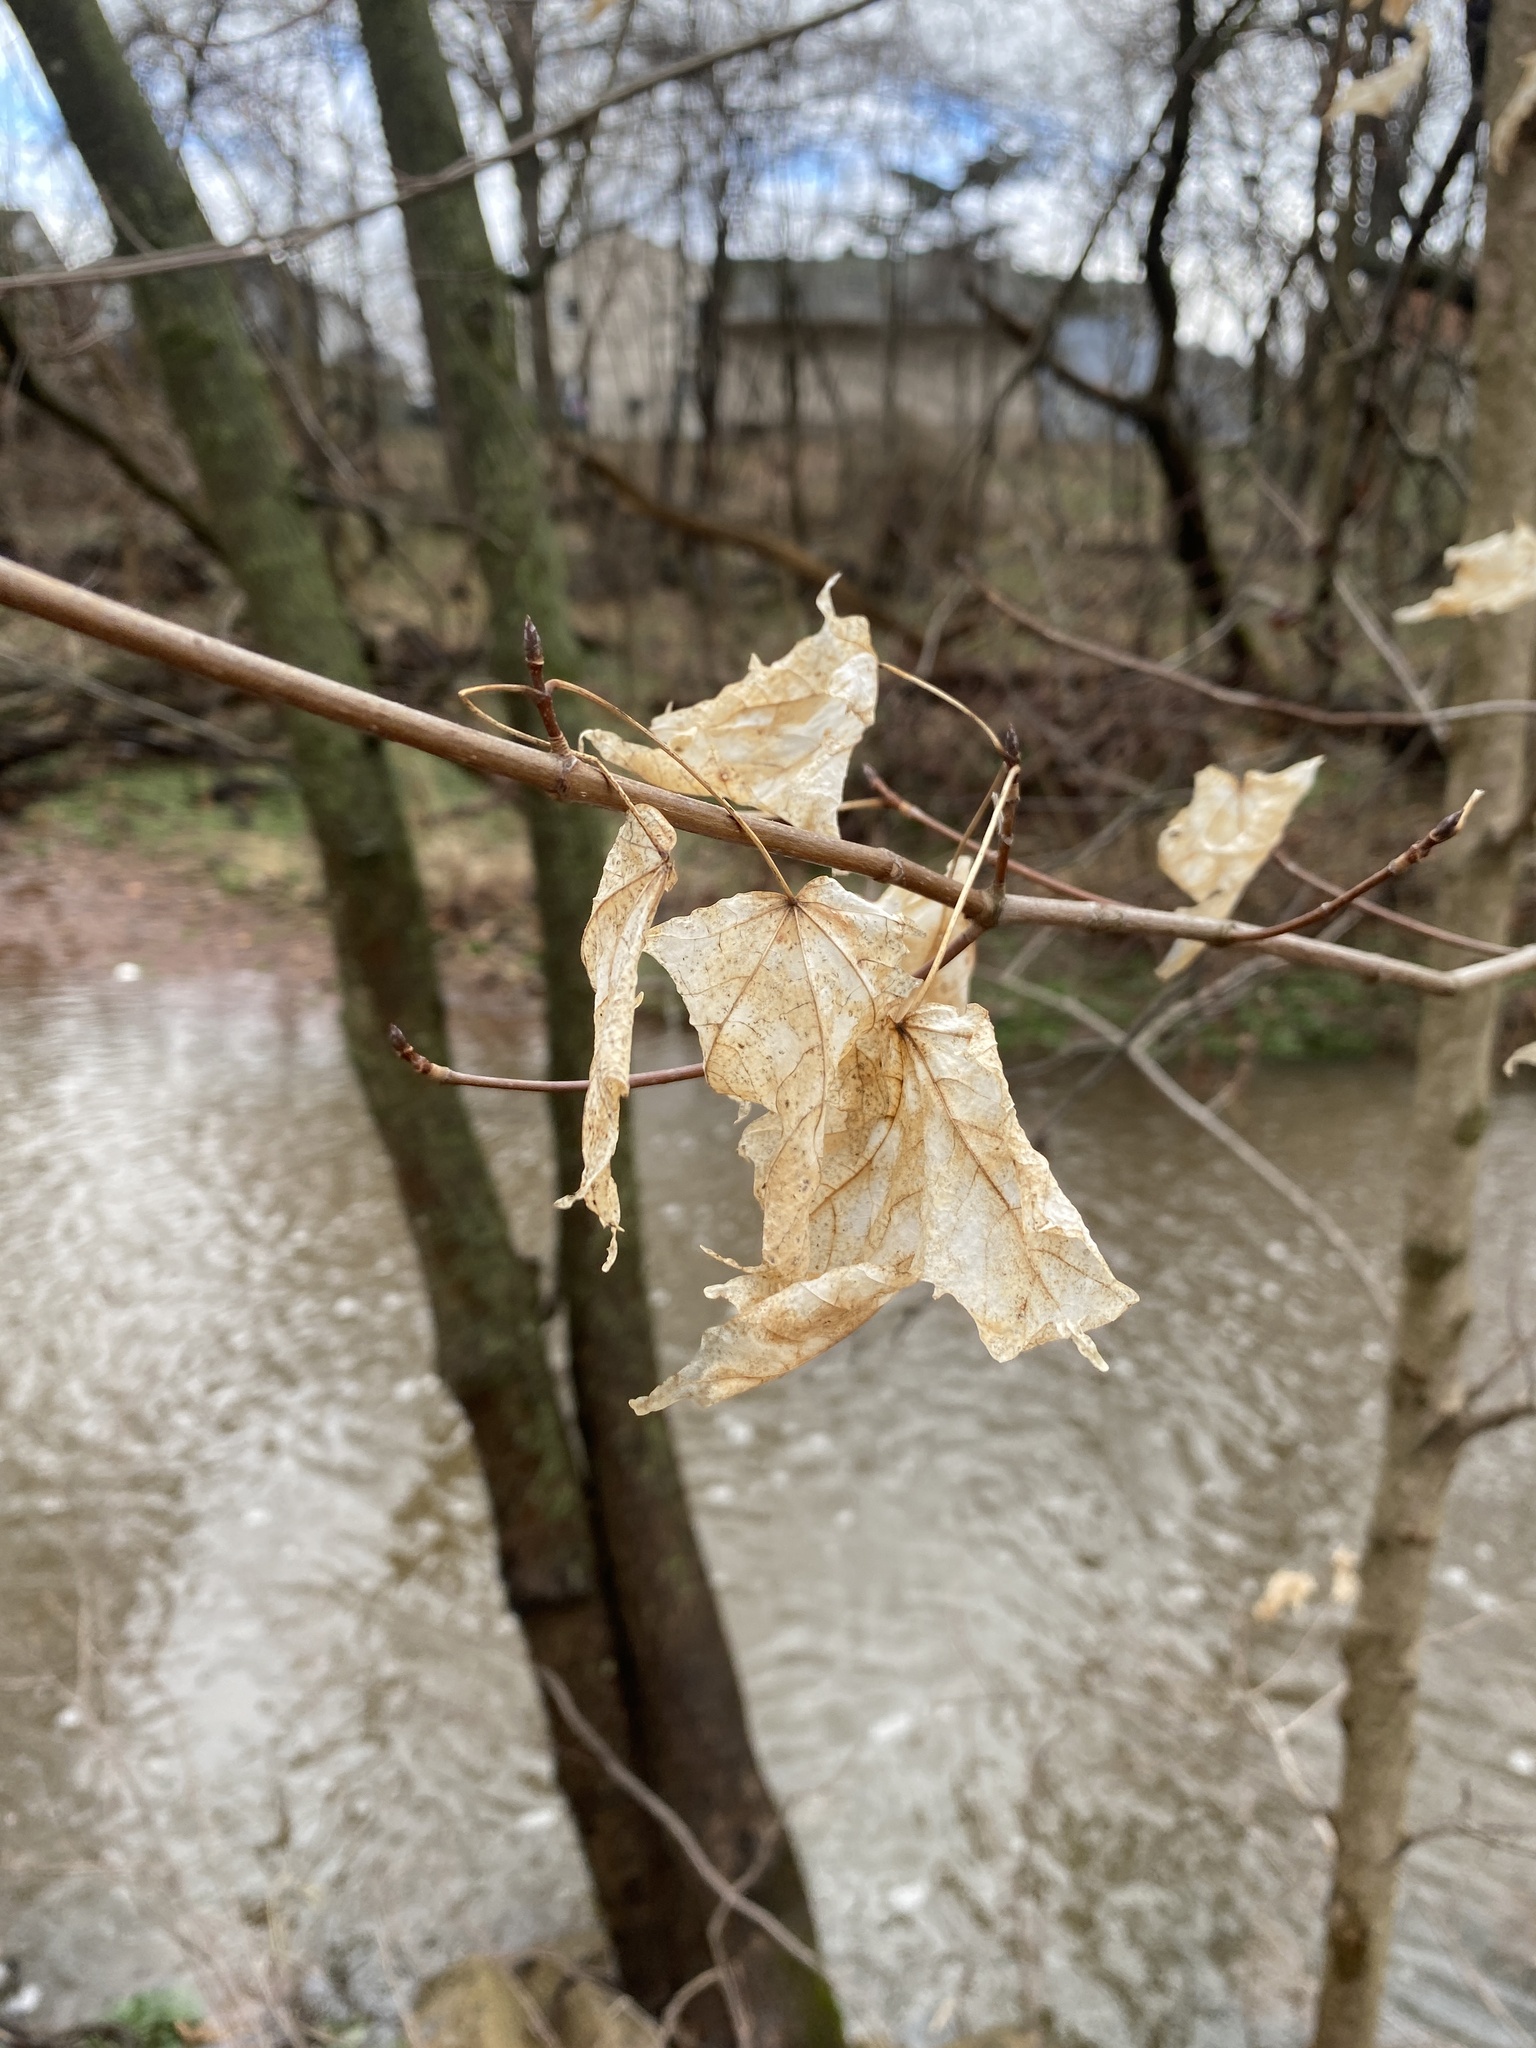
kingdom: Plantae
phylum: Tracheophyta
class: Magnoliopsida
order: Sapindales
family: Sapindaceae
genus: Acer
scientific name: Acer saccharum
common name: Sugar maple
